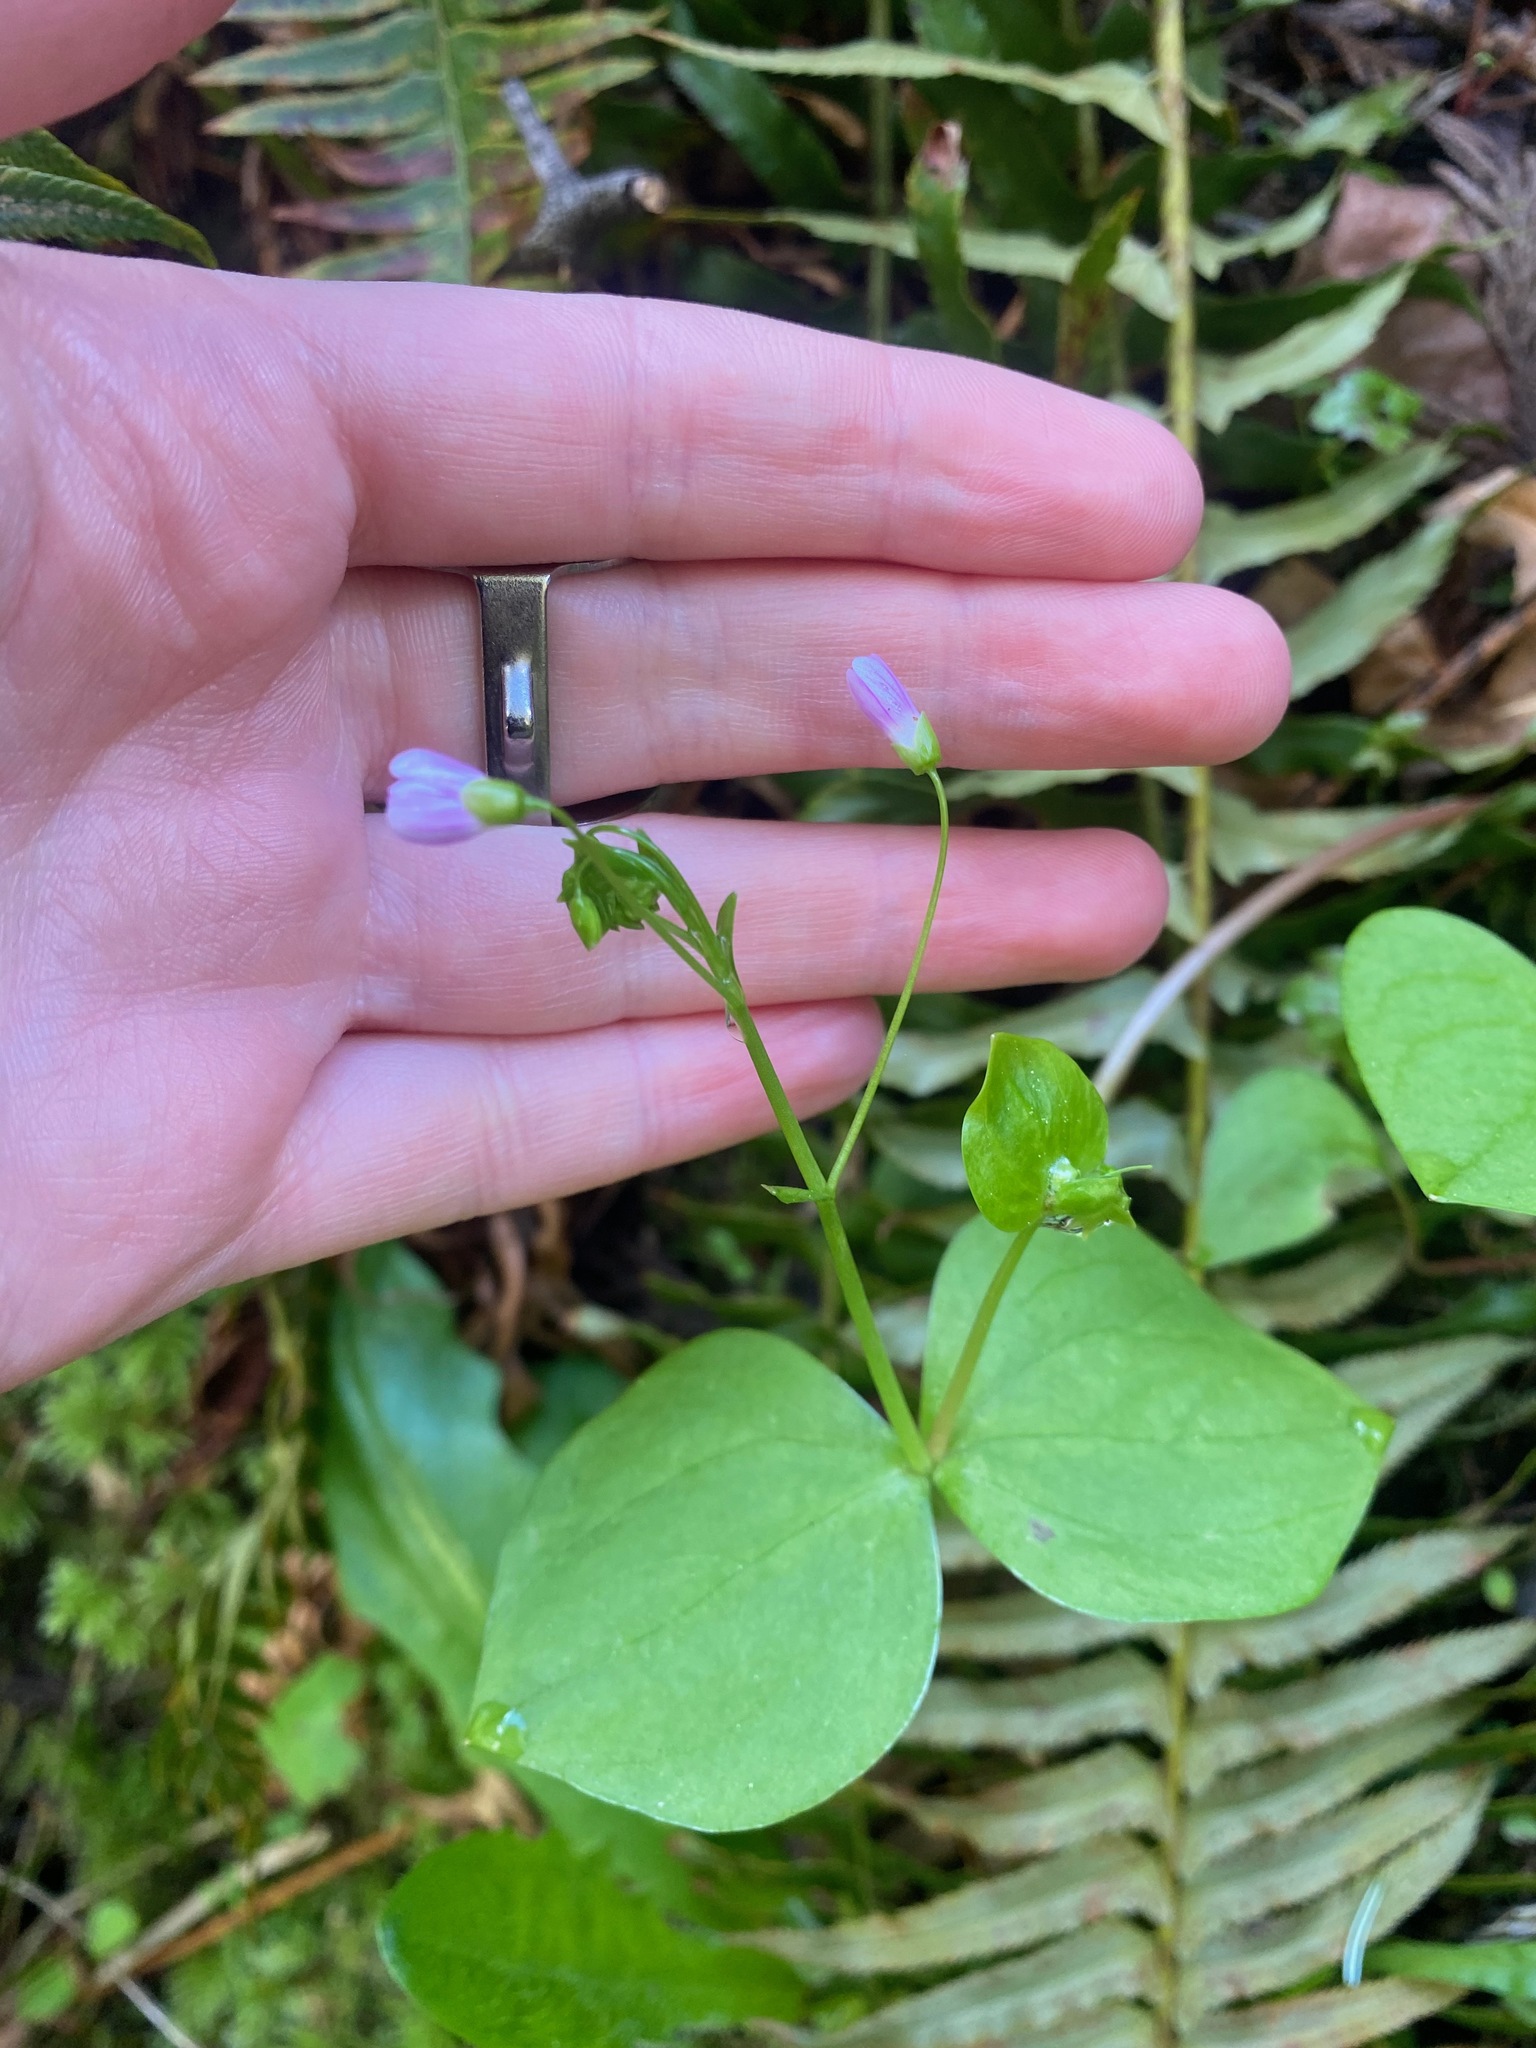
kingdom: Plantae
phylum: Tracheophyta
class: Magnoliopsida
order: Caryophyllales
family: Montiaceae
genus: Claytonia
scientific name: Claytonia sibirica
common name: Pink purslane
